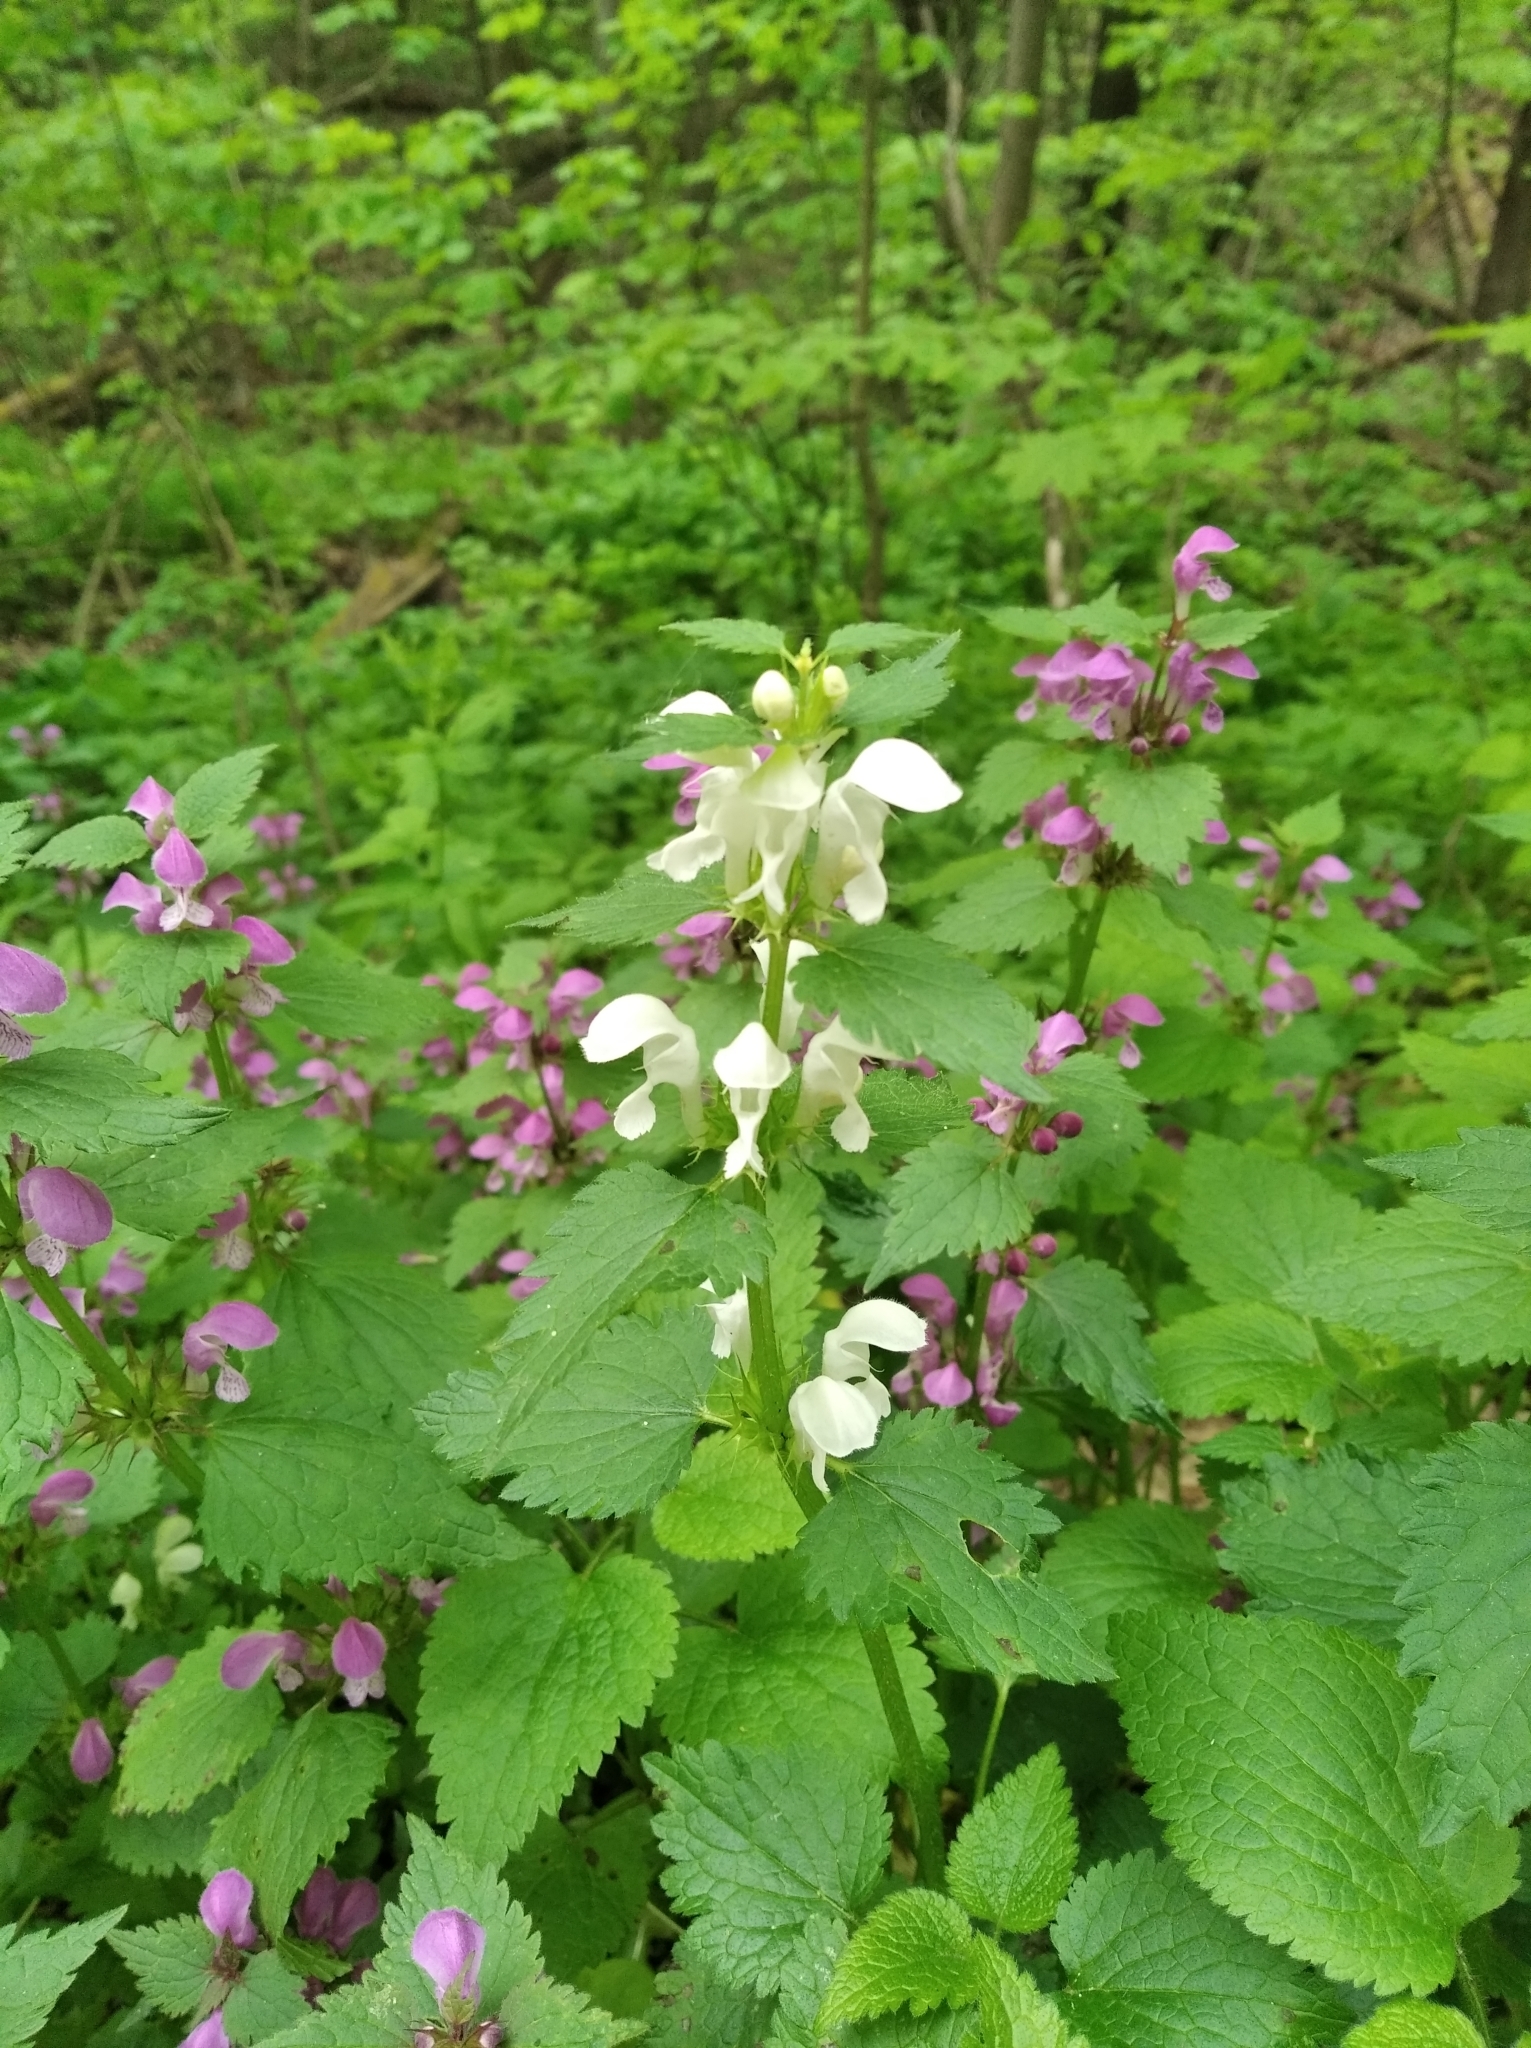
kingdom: Plantae
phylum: Tracheophyta
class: Magnoliopsida
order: Lamiales
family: Lamiaceae
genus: Lamium
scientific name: Lamium maculatum
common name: Spotted dead-nettle
